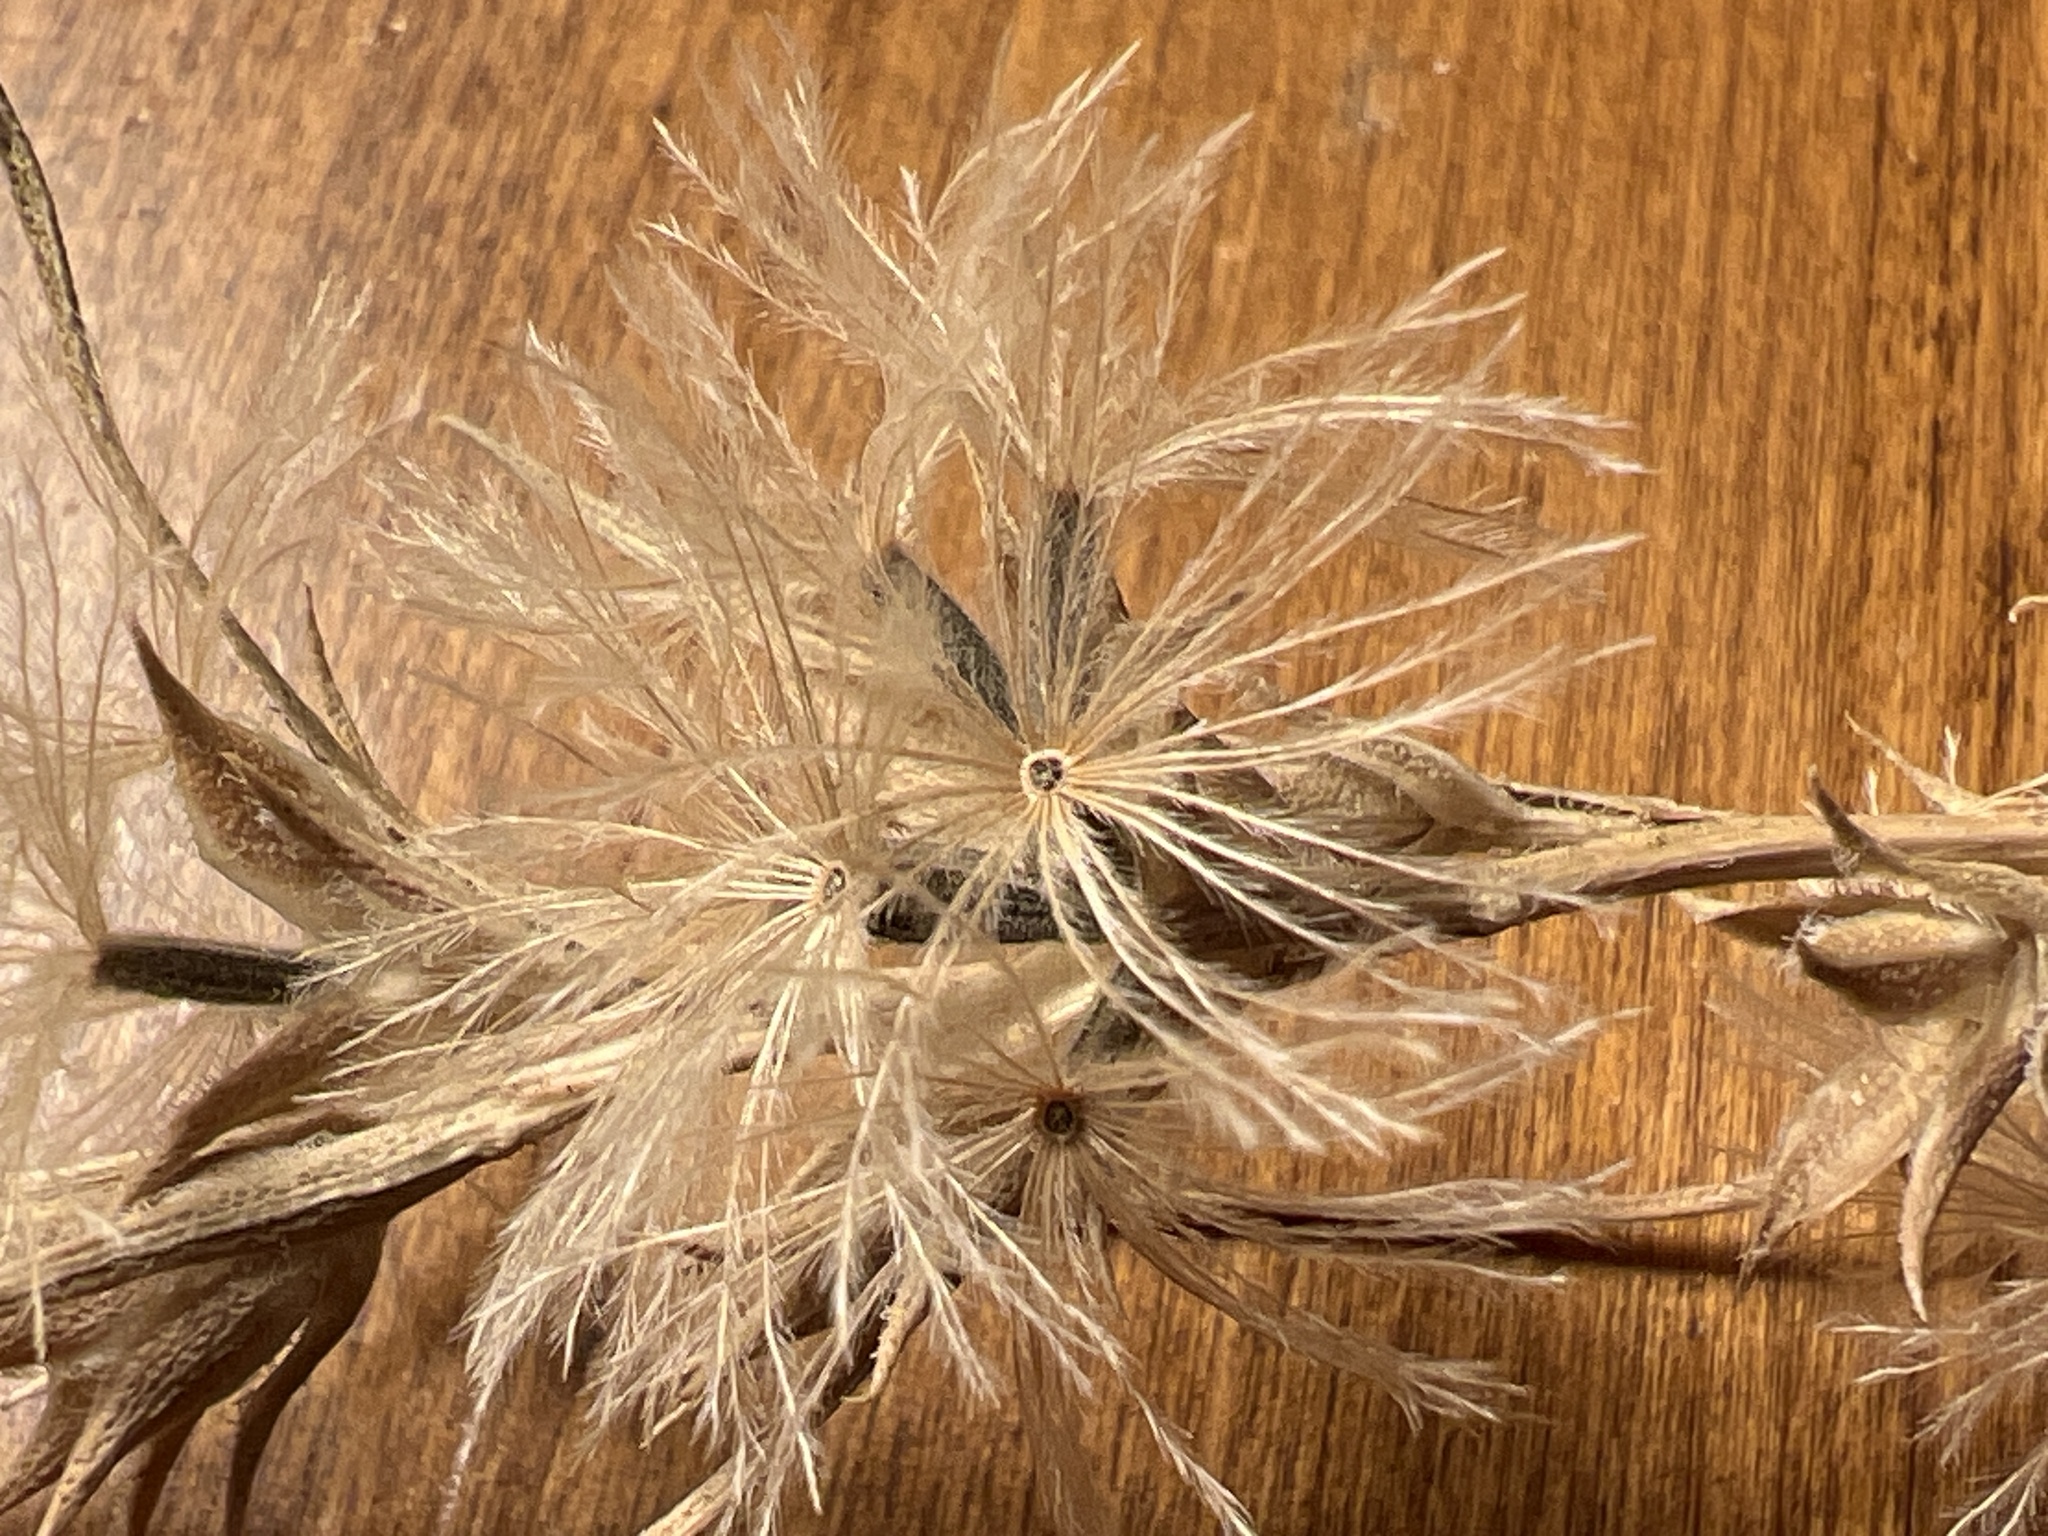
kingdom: Plantae
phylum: Tracheophyta
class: Magnoliopsida
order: Asterales
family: Asteraceae
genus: Liatris
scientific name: Liatris punctata
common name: Dotted gayfeather
